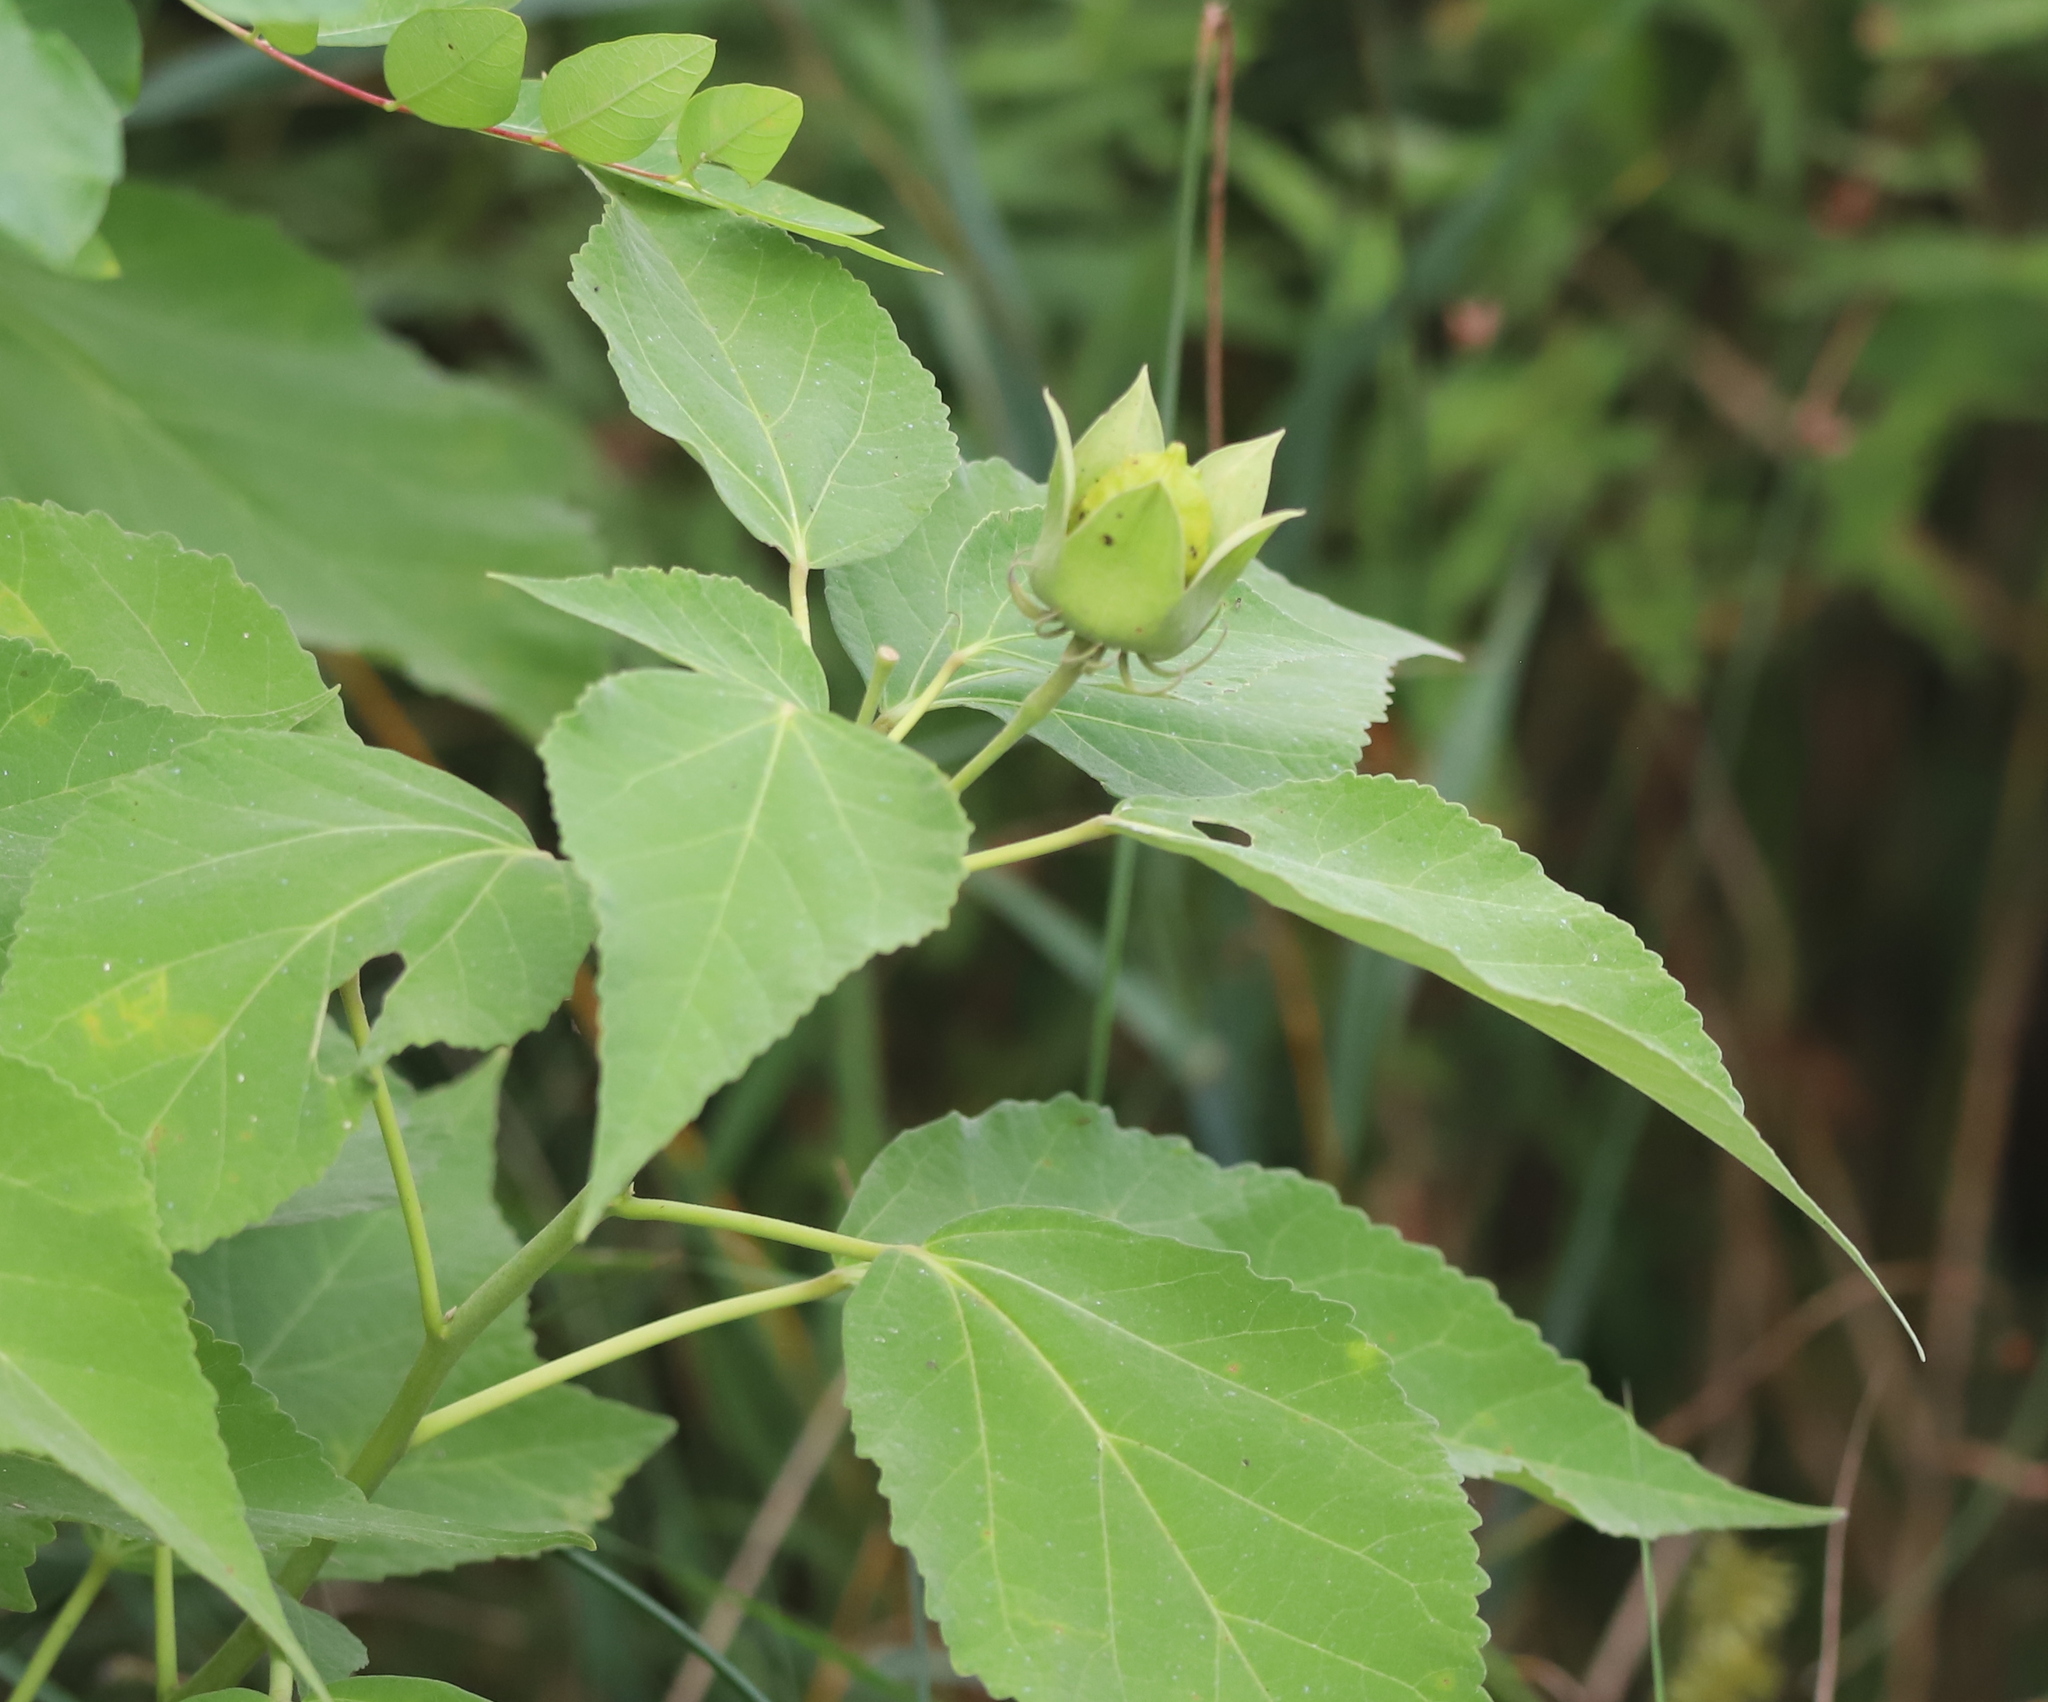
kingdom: Plantae
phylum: Tracheophyta
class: Magnoliopsida
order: Malvales
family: Malvaceae
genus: Hibiscus
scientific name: Hibiscus moscheutos
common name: Common rose-mallow
